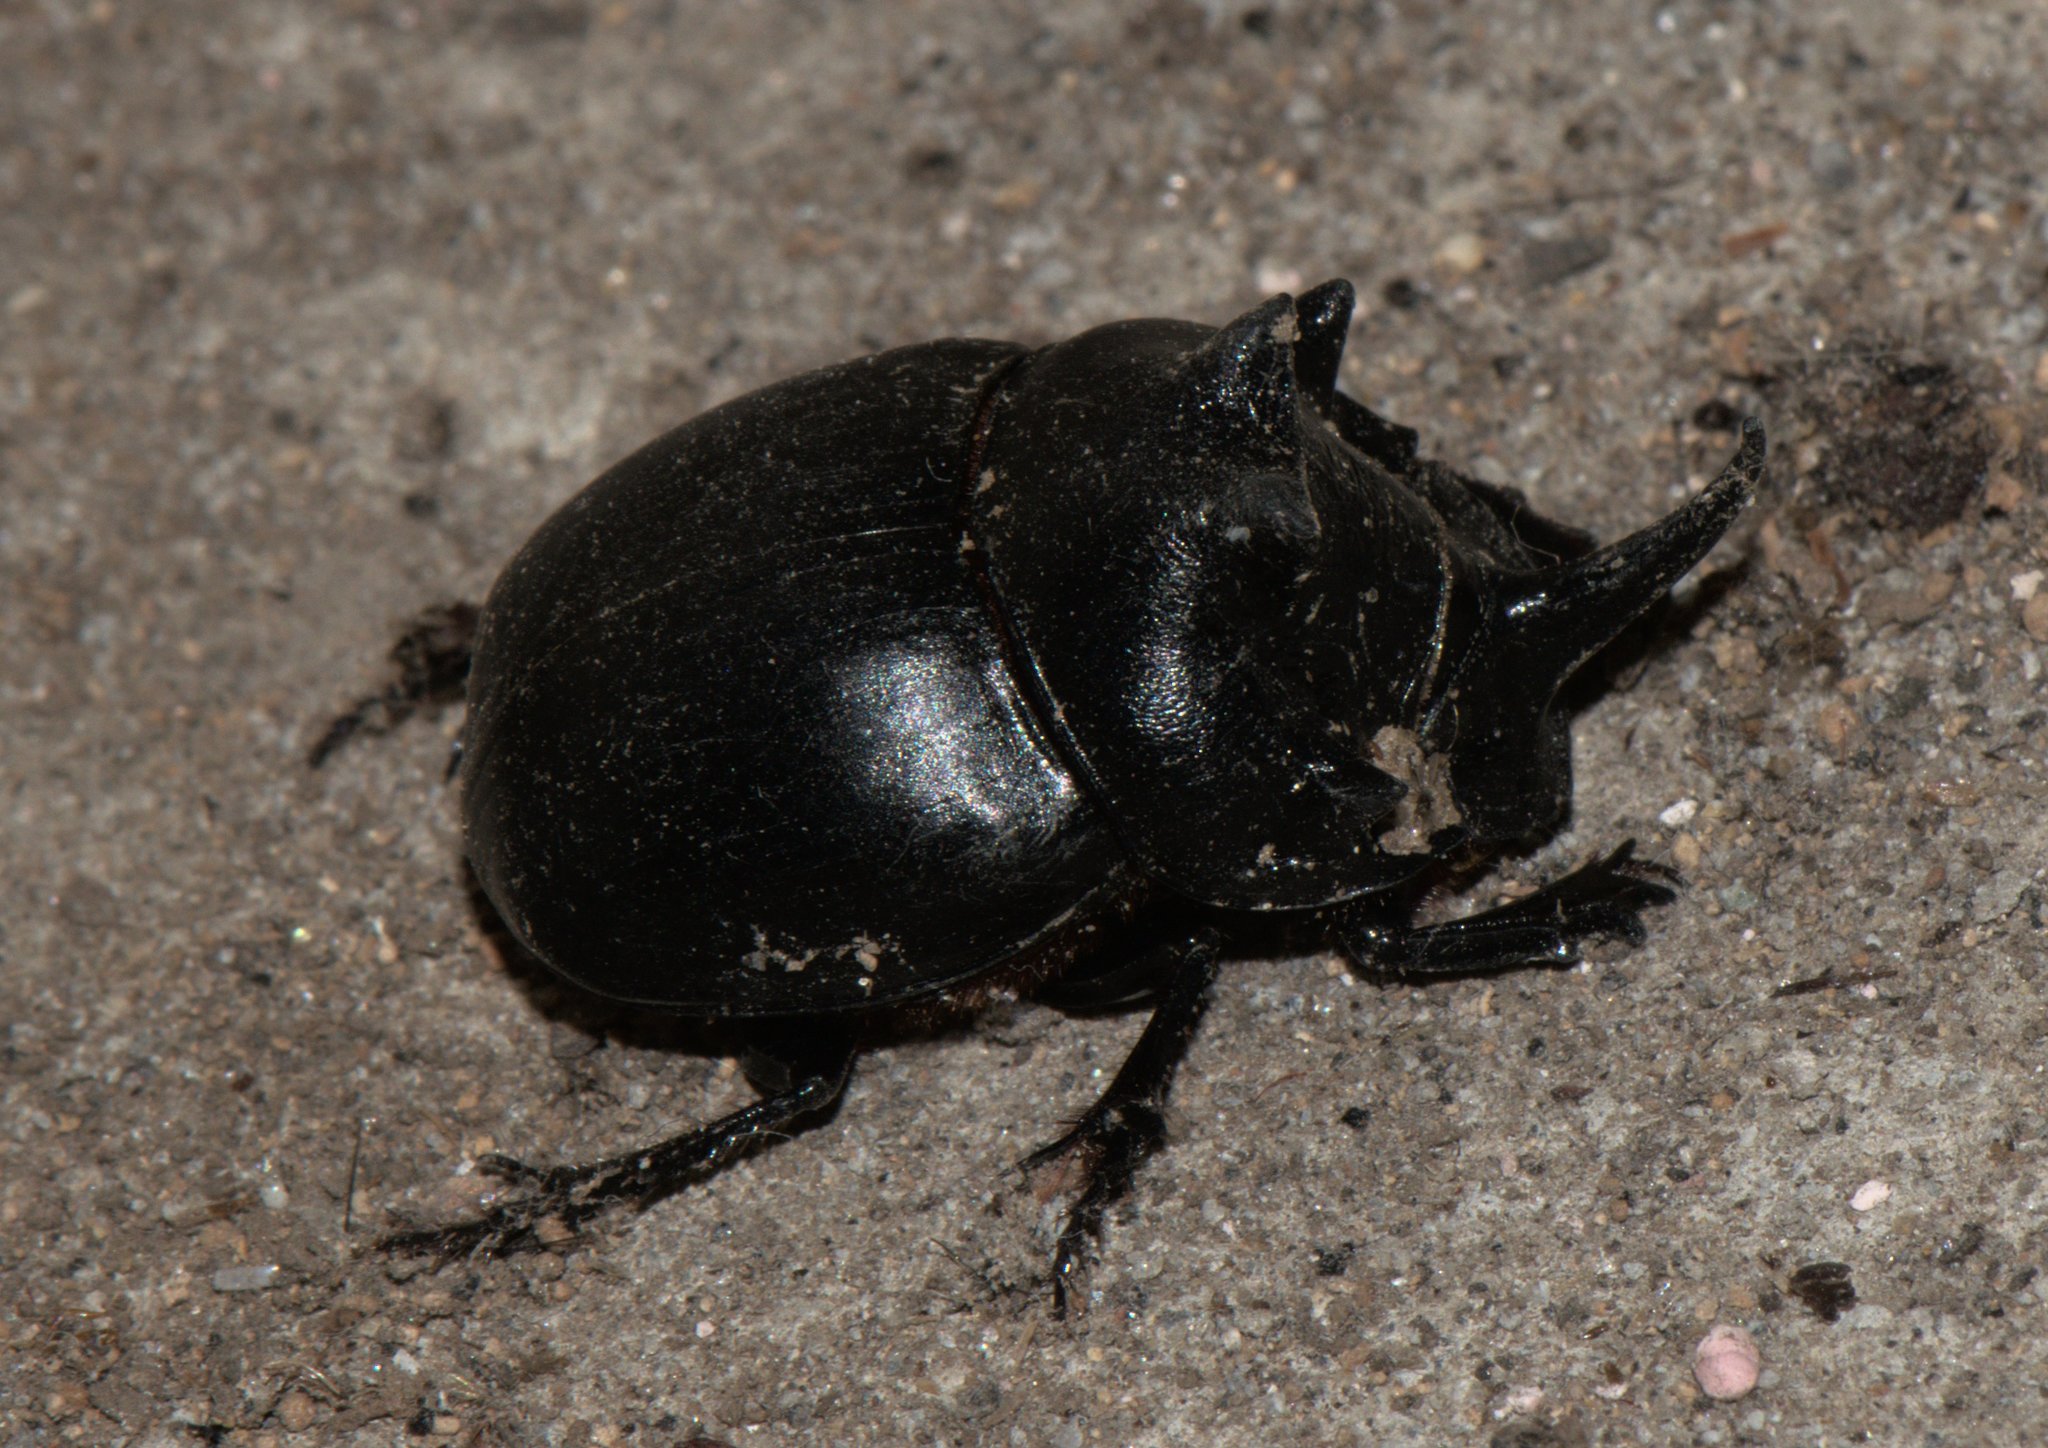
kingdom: Animalia
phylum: Arthropoda
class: Insecta
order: Coleoptera
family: Scarabaeidae
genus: Copris
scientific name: Copris sacontala
